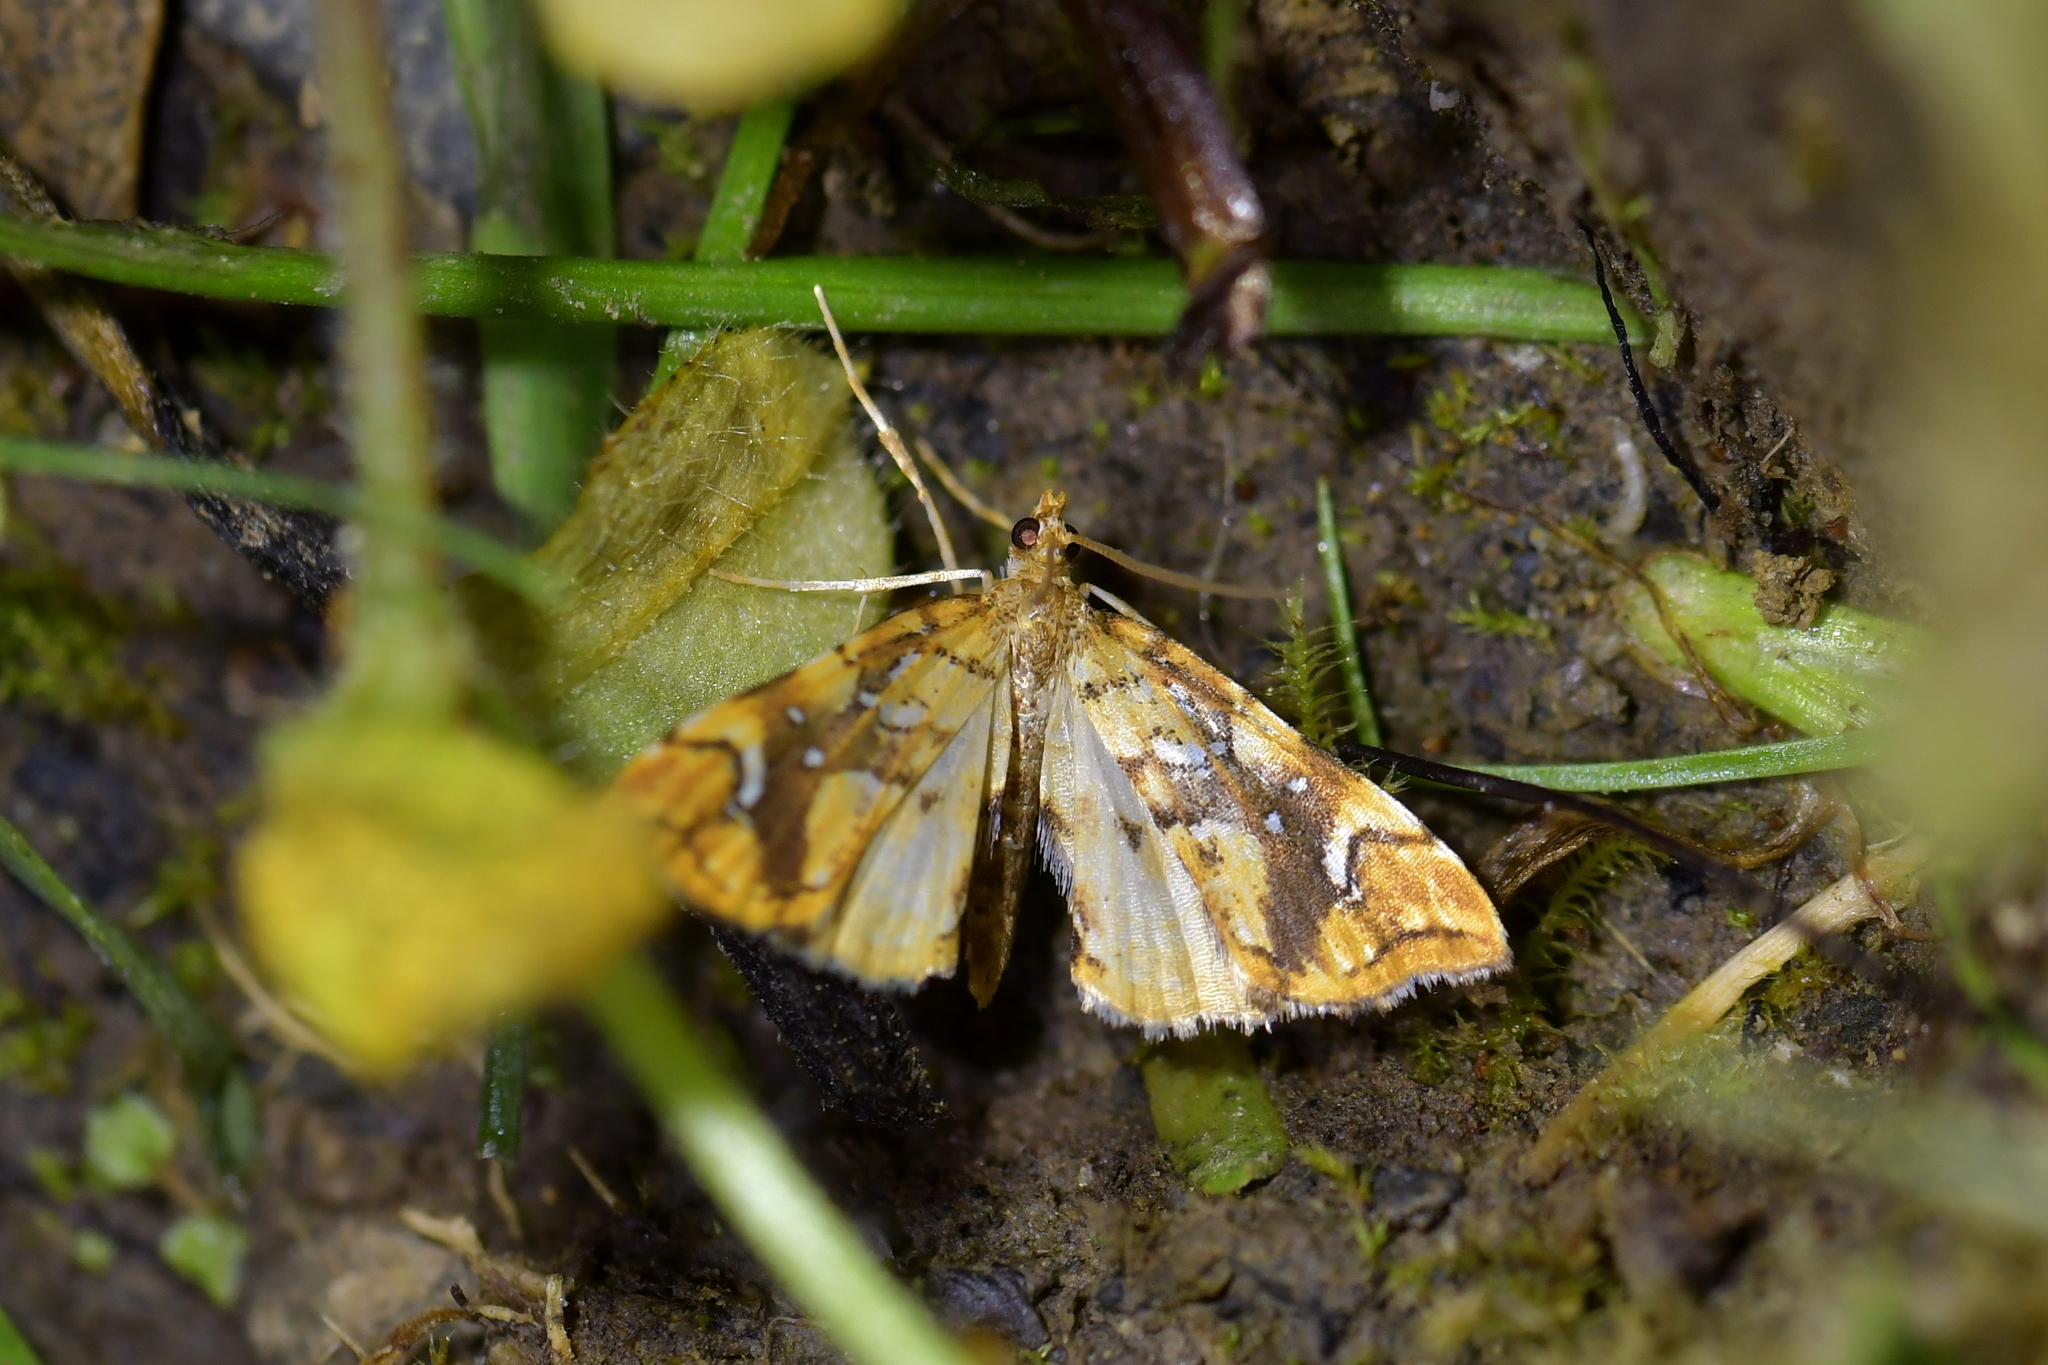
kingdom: Animalia
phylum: Arthropoda
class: Insecta
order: Lepidoptera
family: Pyralidae
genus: Musotima
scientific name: Musotima nitidalis
